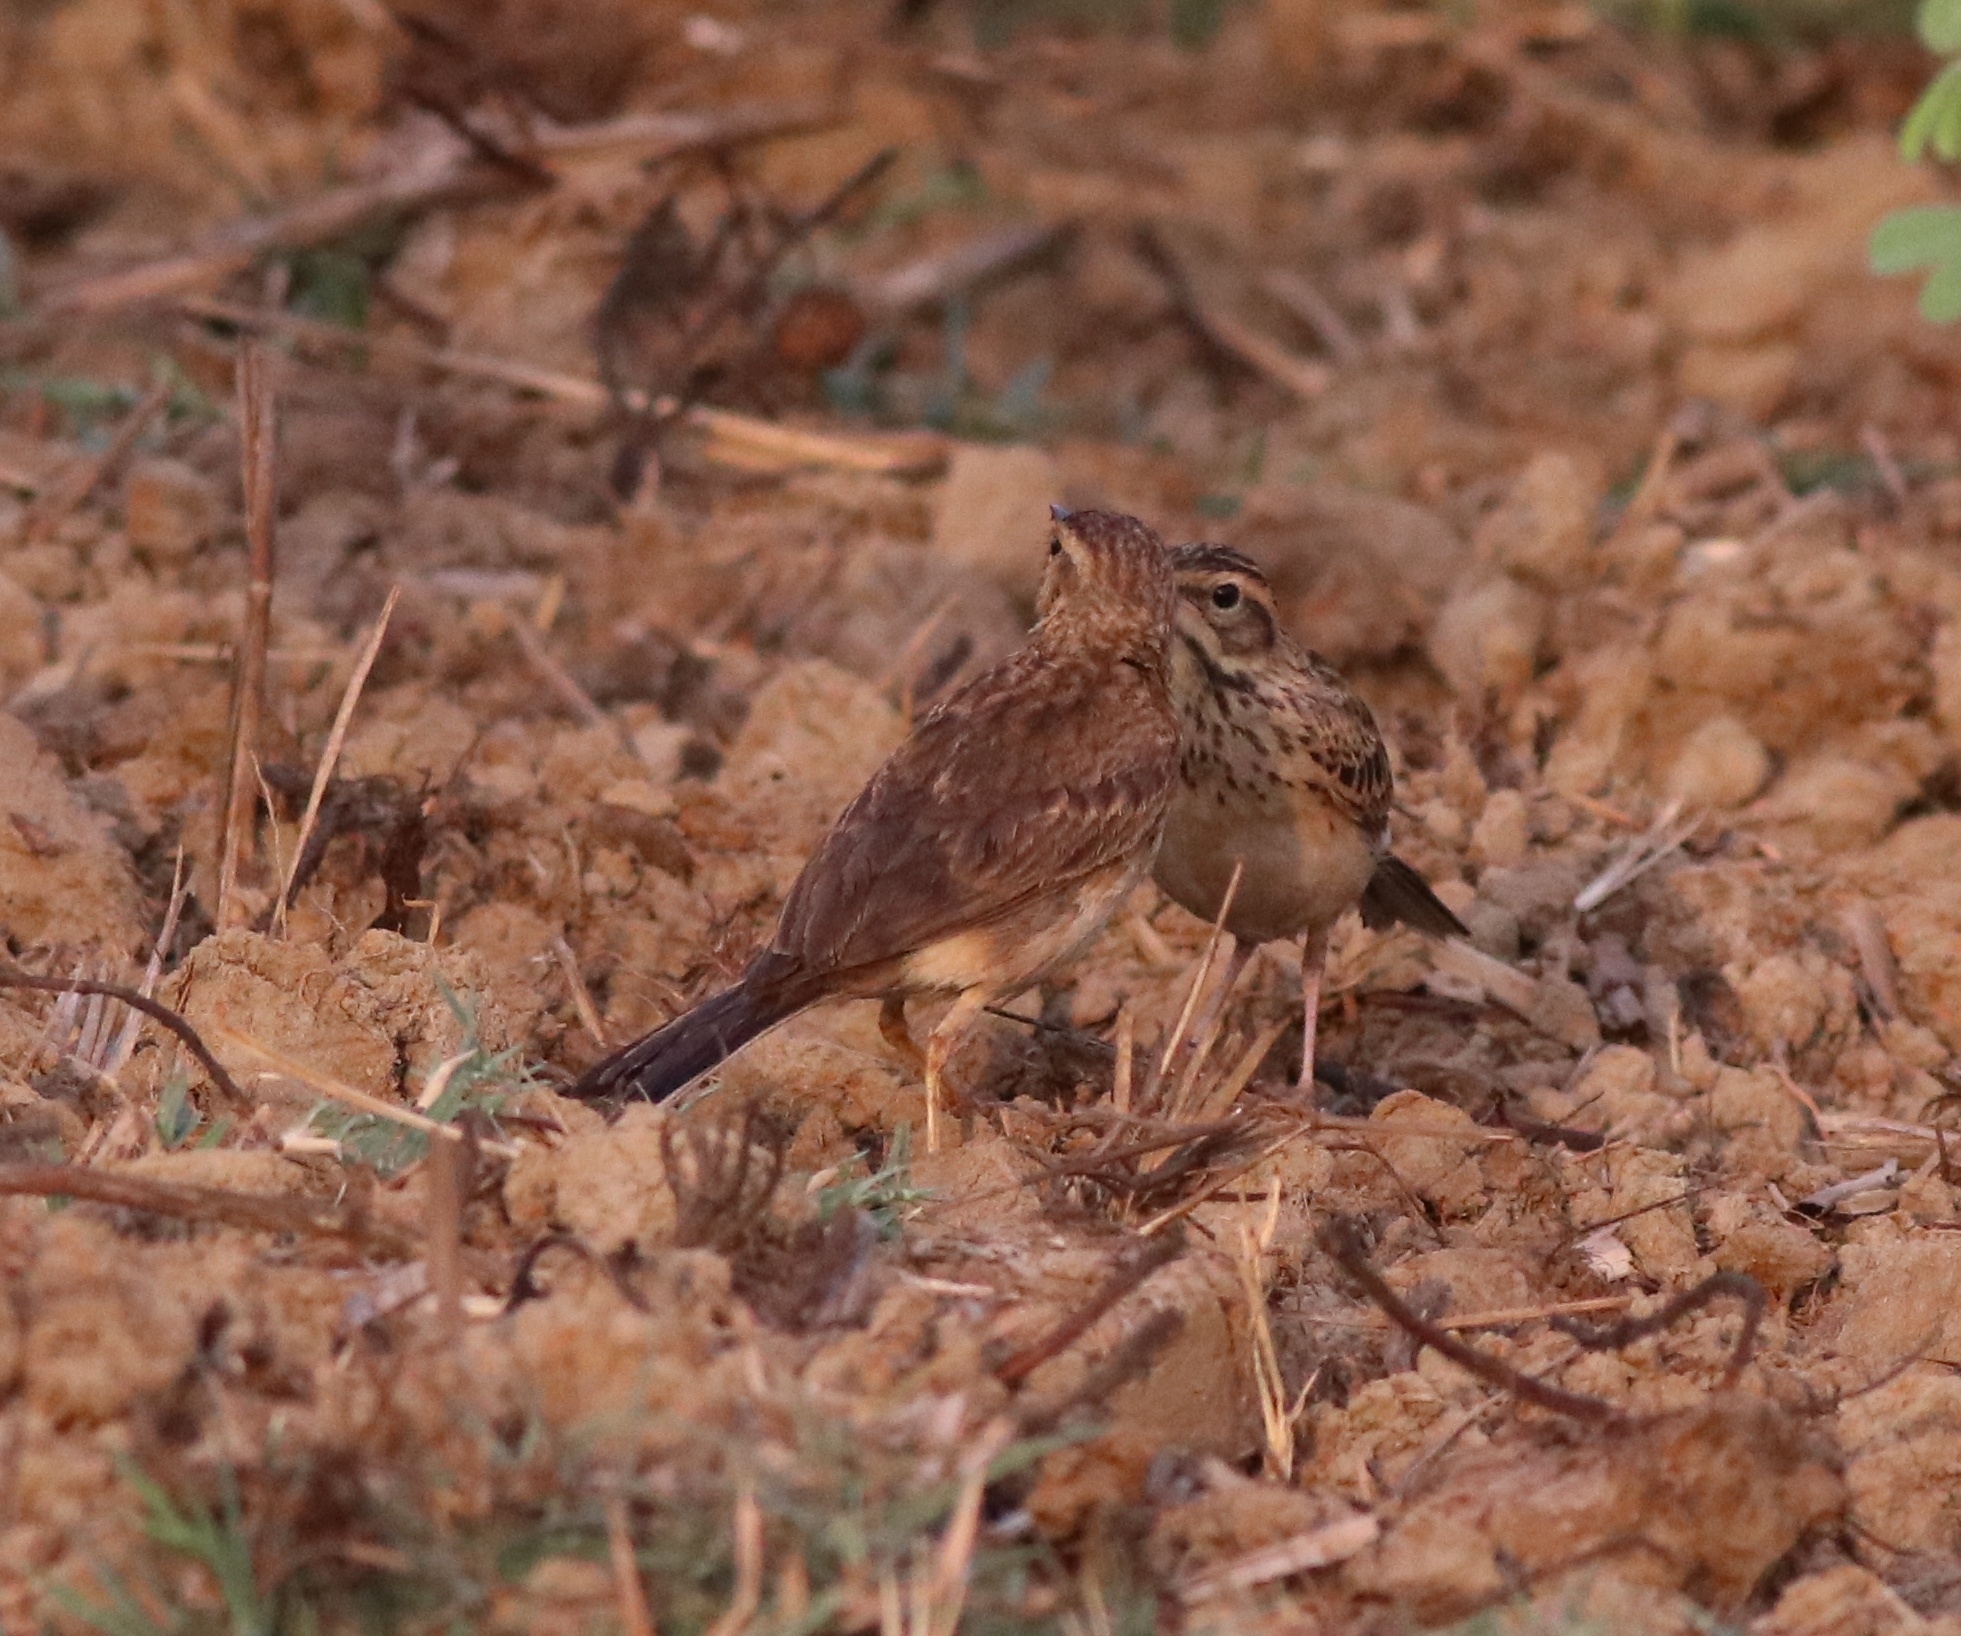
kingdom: Animalia
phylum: Chordata
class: Aves
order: Passeriformes
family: Motacillidae
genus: Anthus
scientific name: Anthus rufulus
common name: Paddyfield pipit
